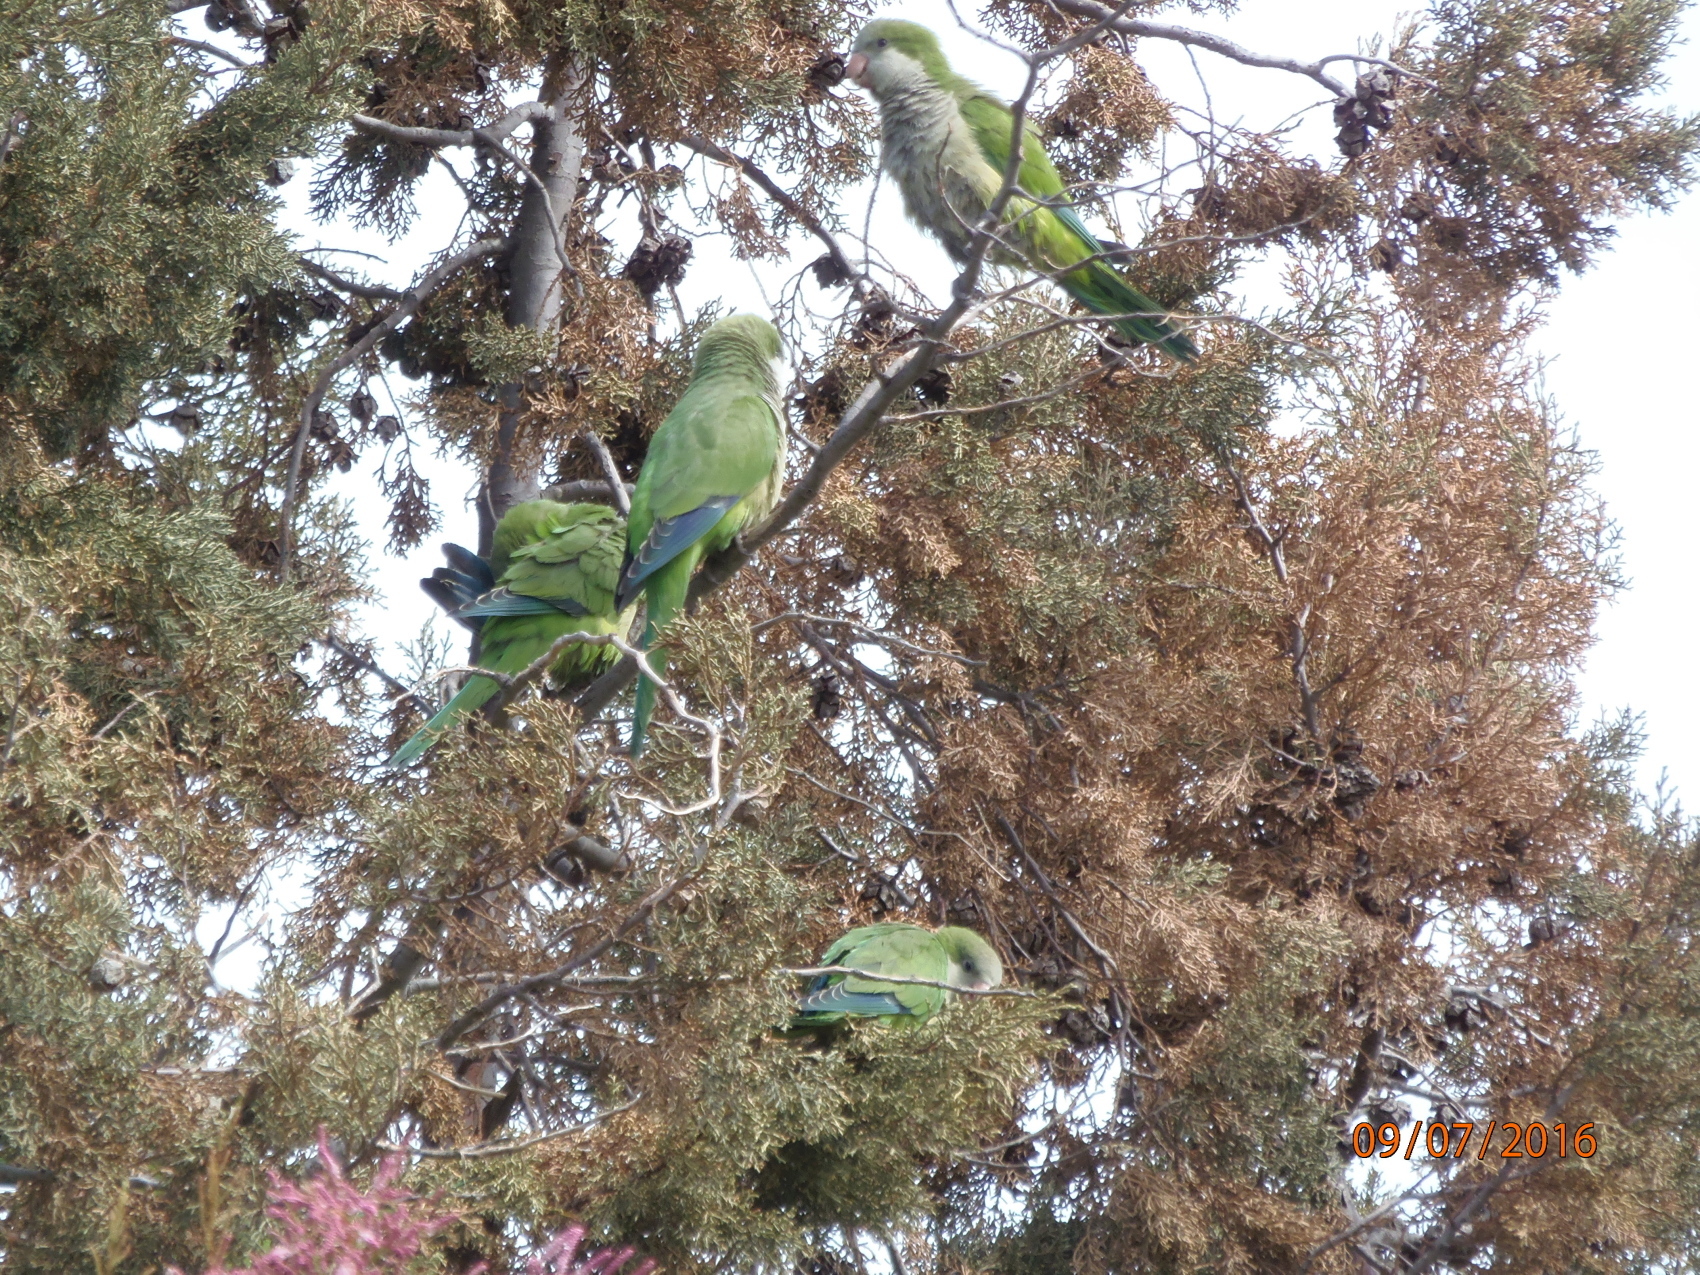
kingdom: Animalia
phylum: Chordata
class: Aves
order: Psittaciformes
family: Psittacidae
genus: Myiopsitta
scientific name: Myiopsitta monachus
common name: Monk parakeet
